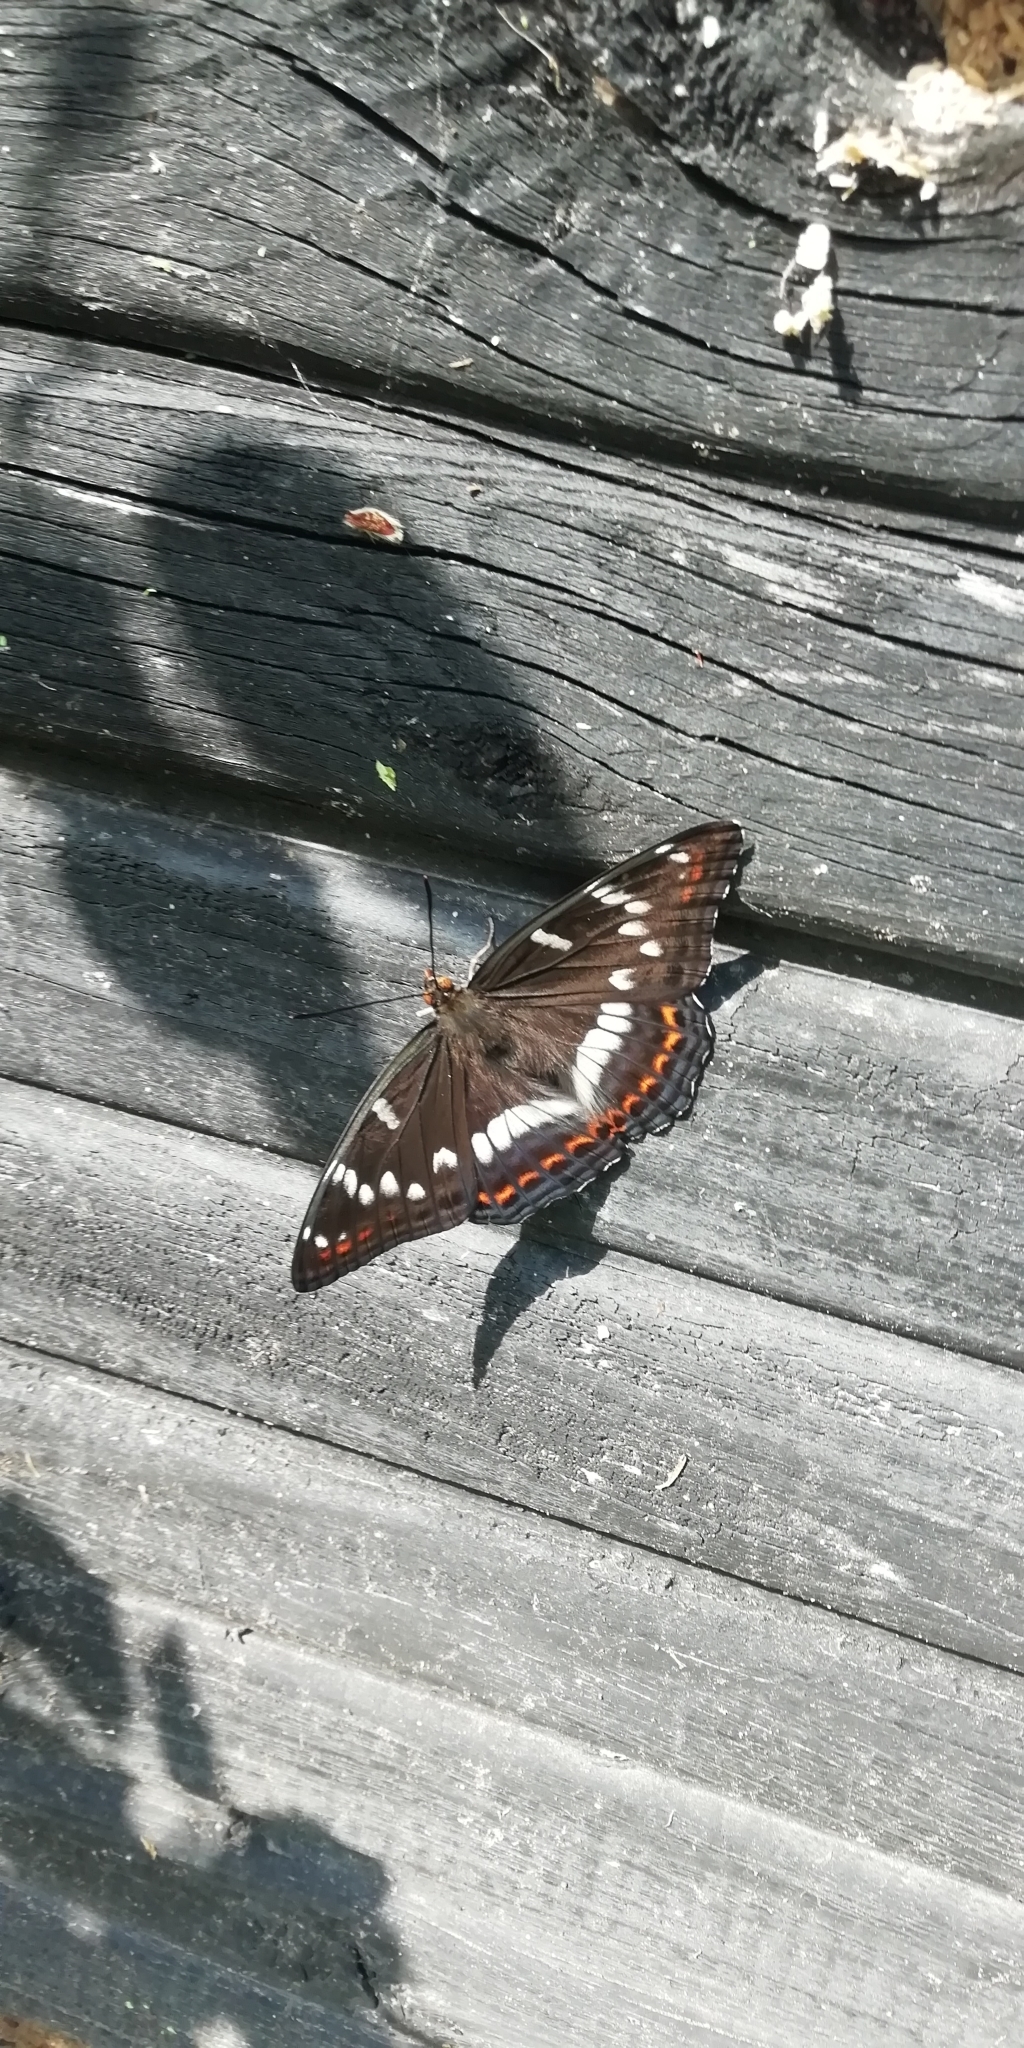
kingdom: Animalia
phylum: Arthropoda
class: Insecta
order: Lepidoptera
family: Nymphalidae
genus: Limenitis
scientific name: Limenitis populi
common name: Poplar admiral
